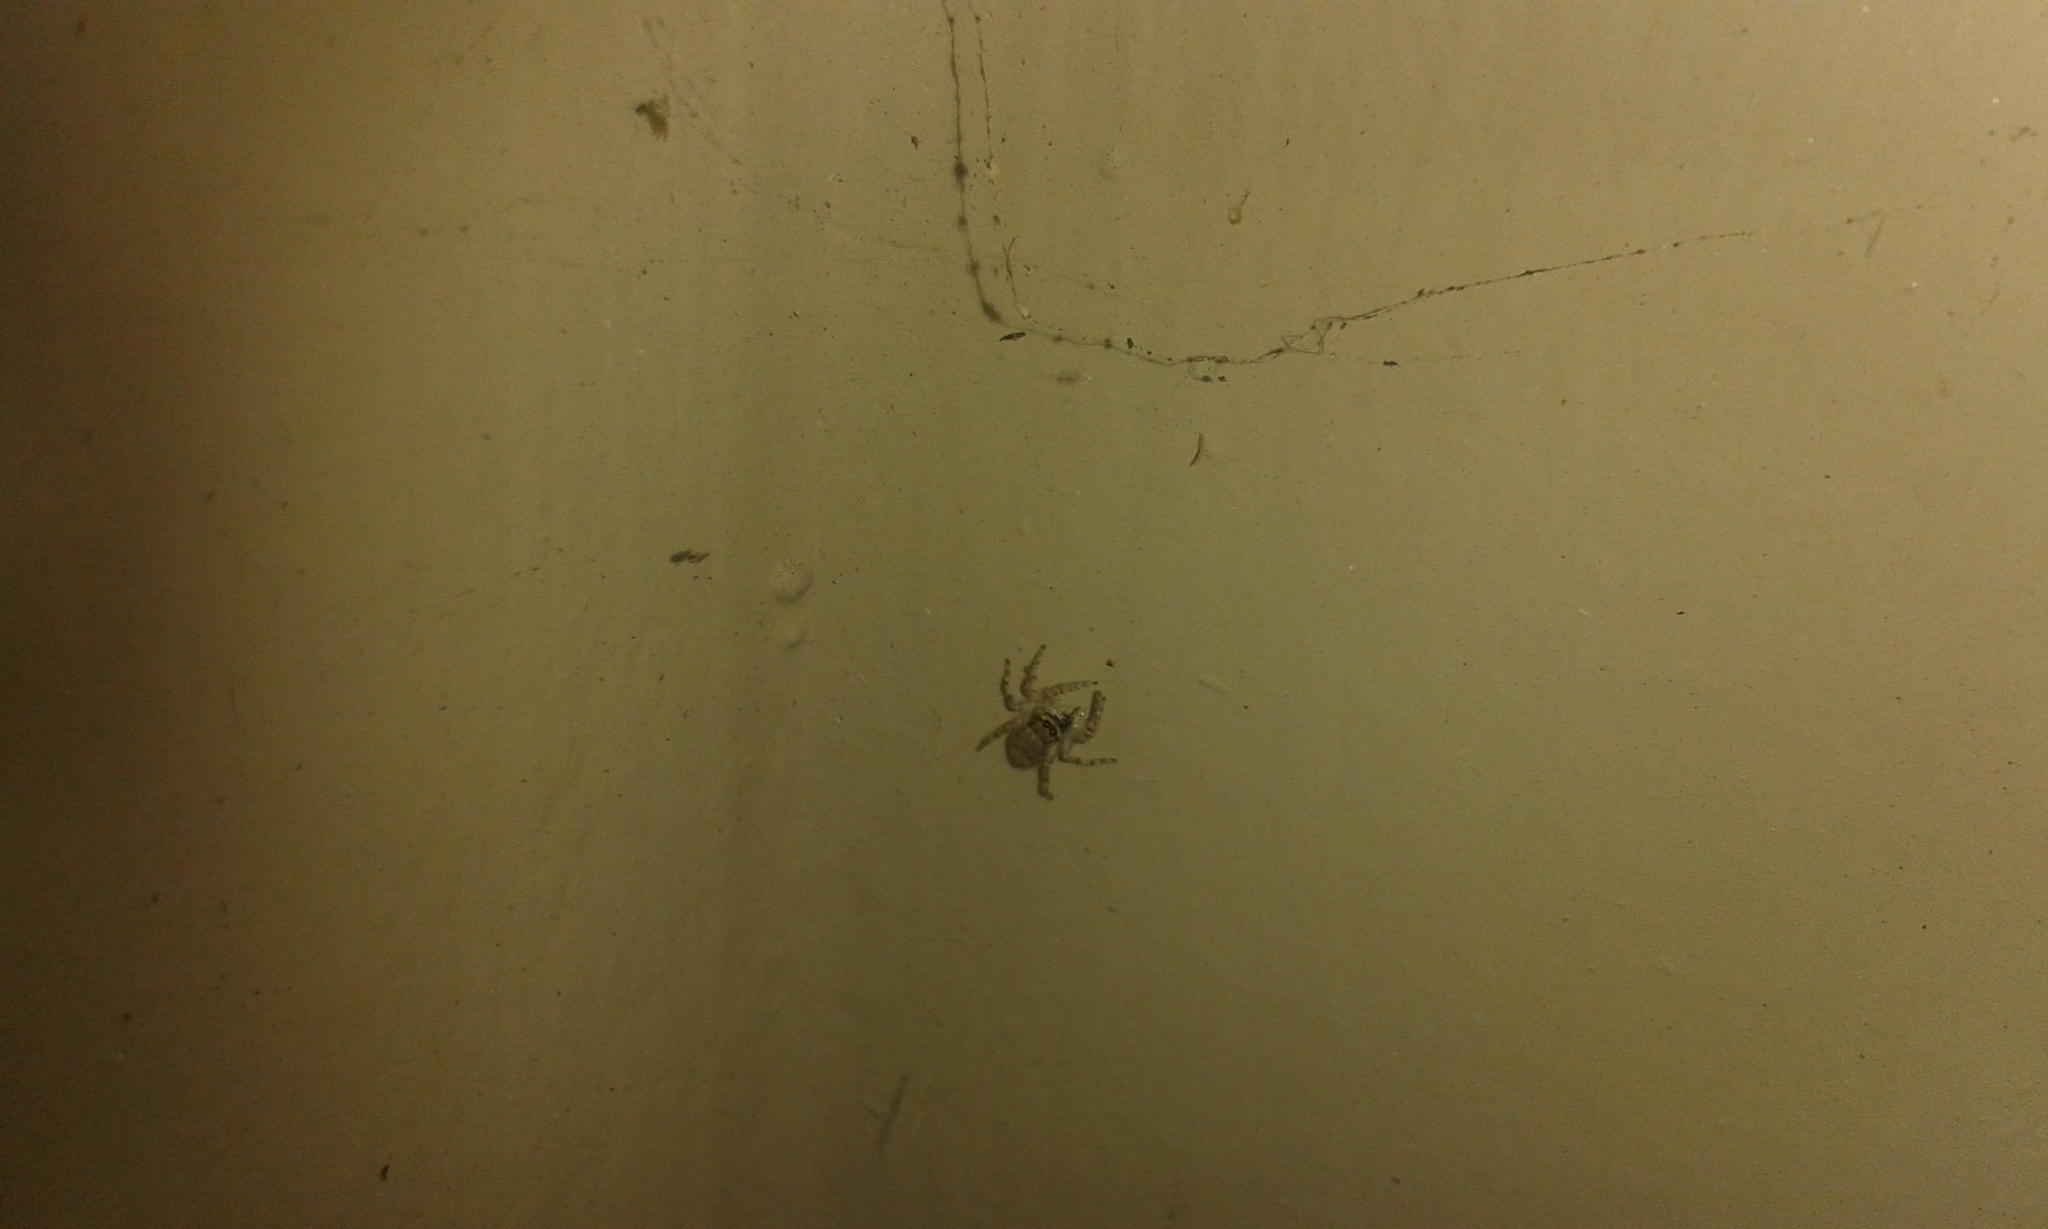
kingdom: Animalia
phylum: Arthropoda
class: Arachnida
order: Araneae
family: Salticidae
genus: Menemerus
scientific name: Menemerus bivittatus
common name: Gray wall jumper
